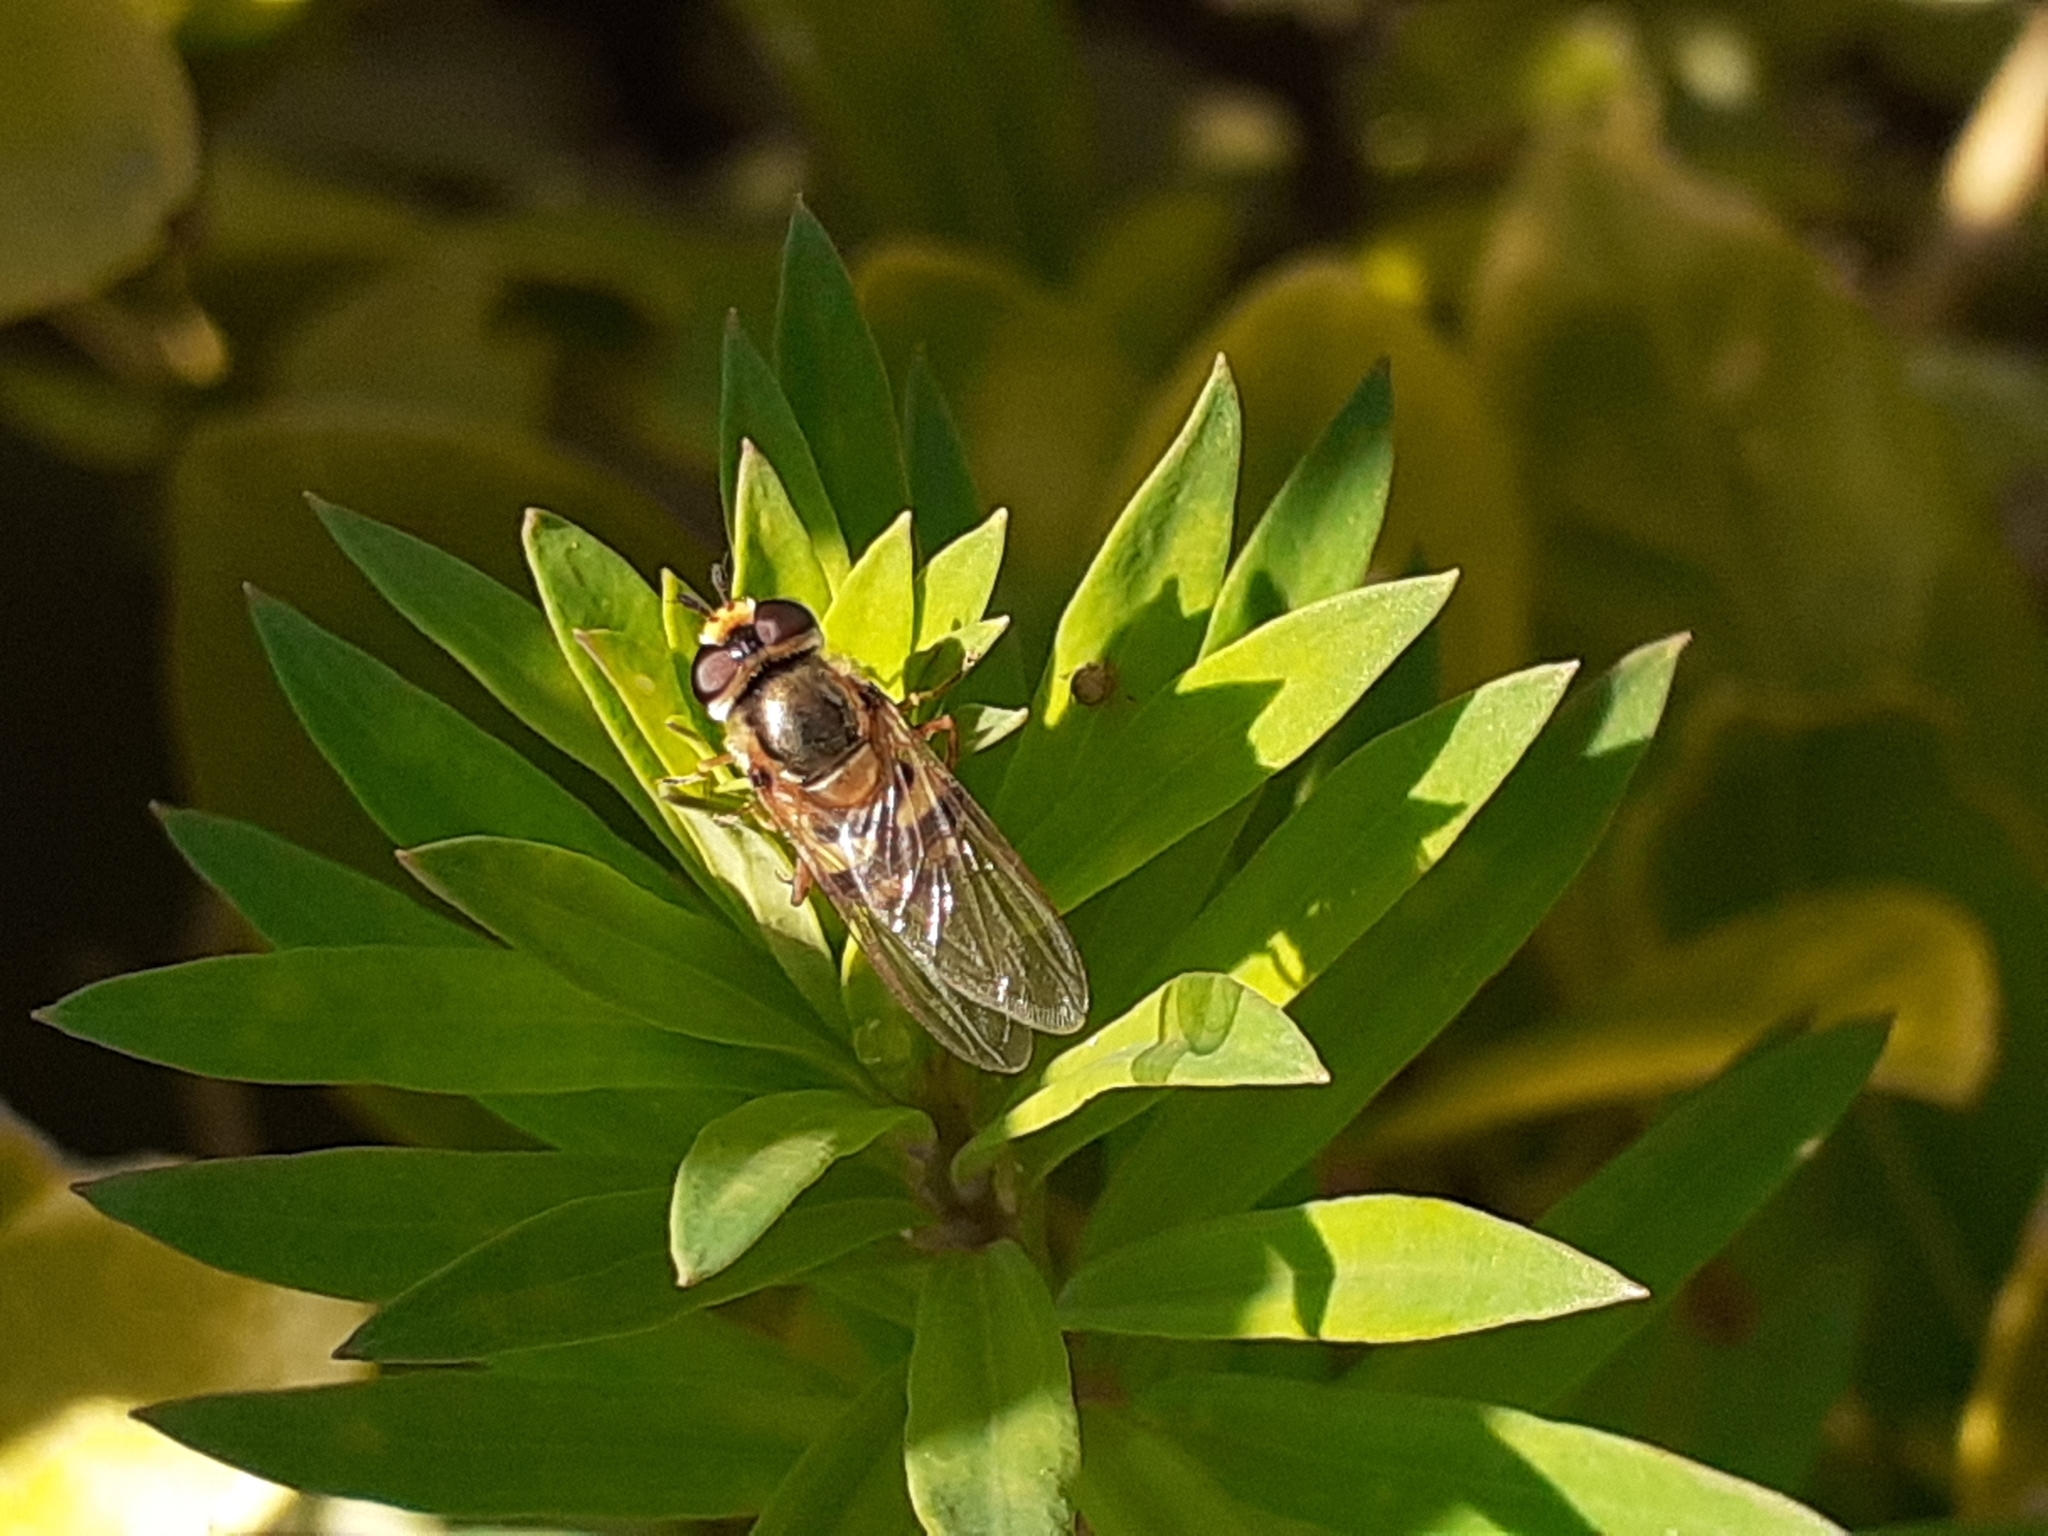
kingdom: Animalia
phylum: Arthropoda
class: Insecta
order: Diptera
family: Syrphidae
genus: Eupeodes
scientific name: Eupeodes corollae
